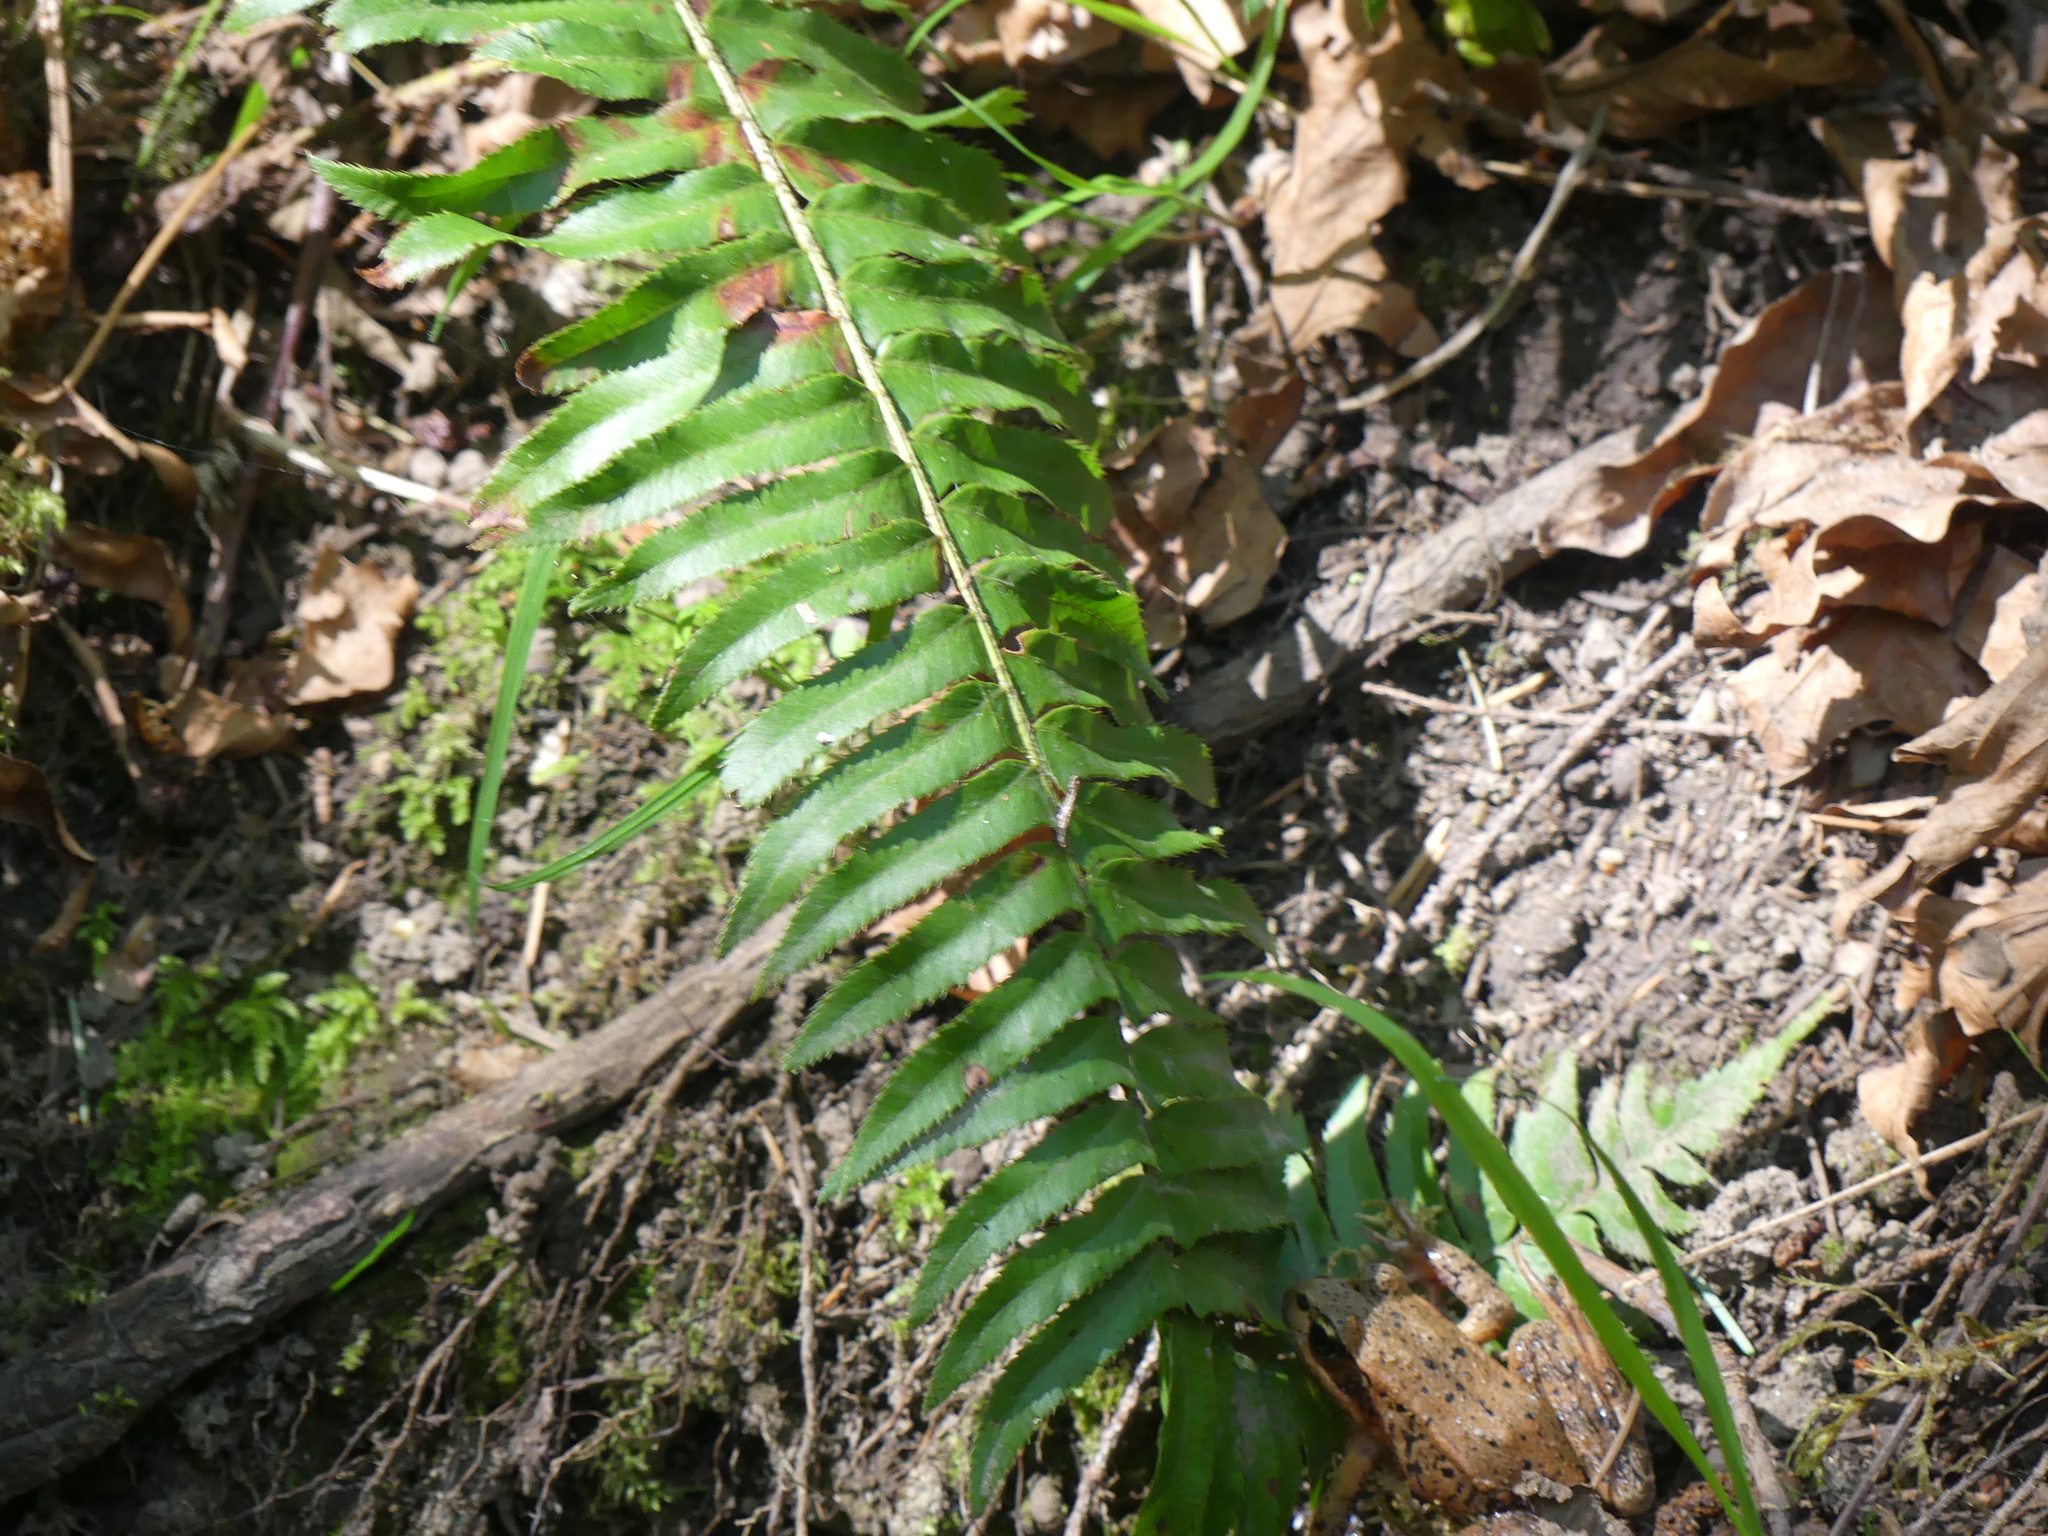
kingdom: Plantae
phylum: Tracheophyta
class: Polypodiopsida
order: Polypodiales
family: Dryopteridaceae
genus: Polystichum
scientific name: Polystichum munitum
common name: Western sword-fern
